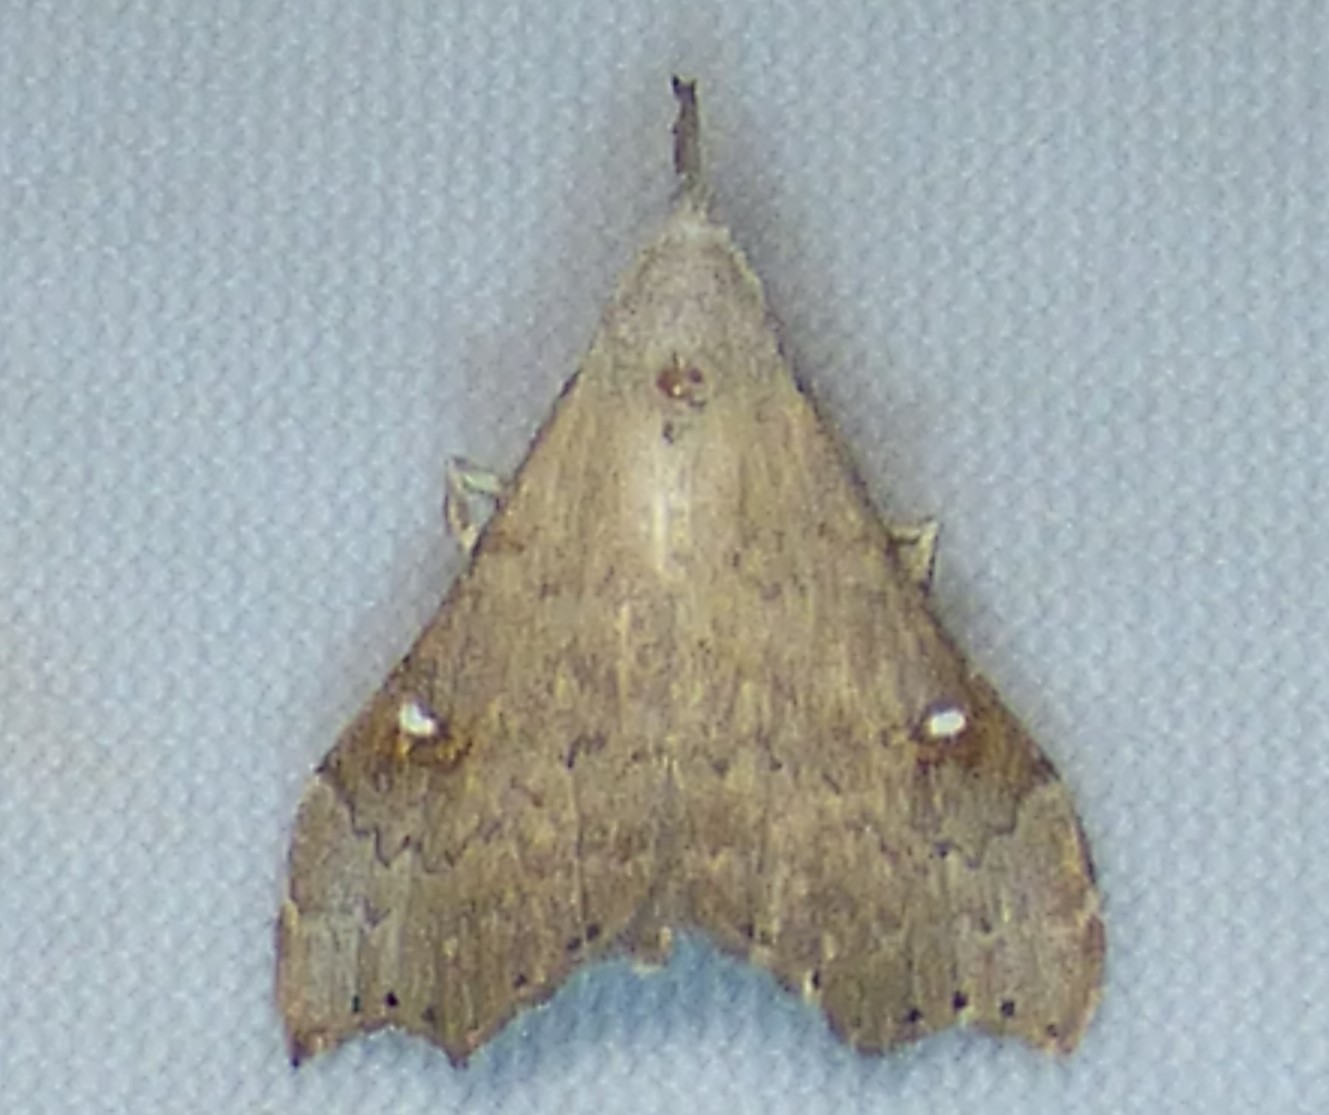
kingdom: Animalia
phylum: Arthropoda
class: Insecta
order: Lepidoptera
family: Erebidae
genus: Redectis
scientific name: Redectis vitrea
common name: White-spotted redectis
